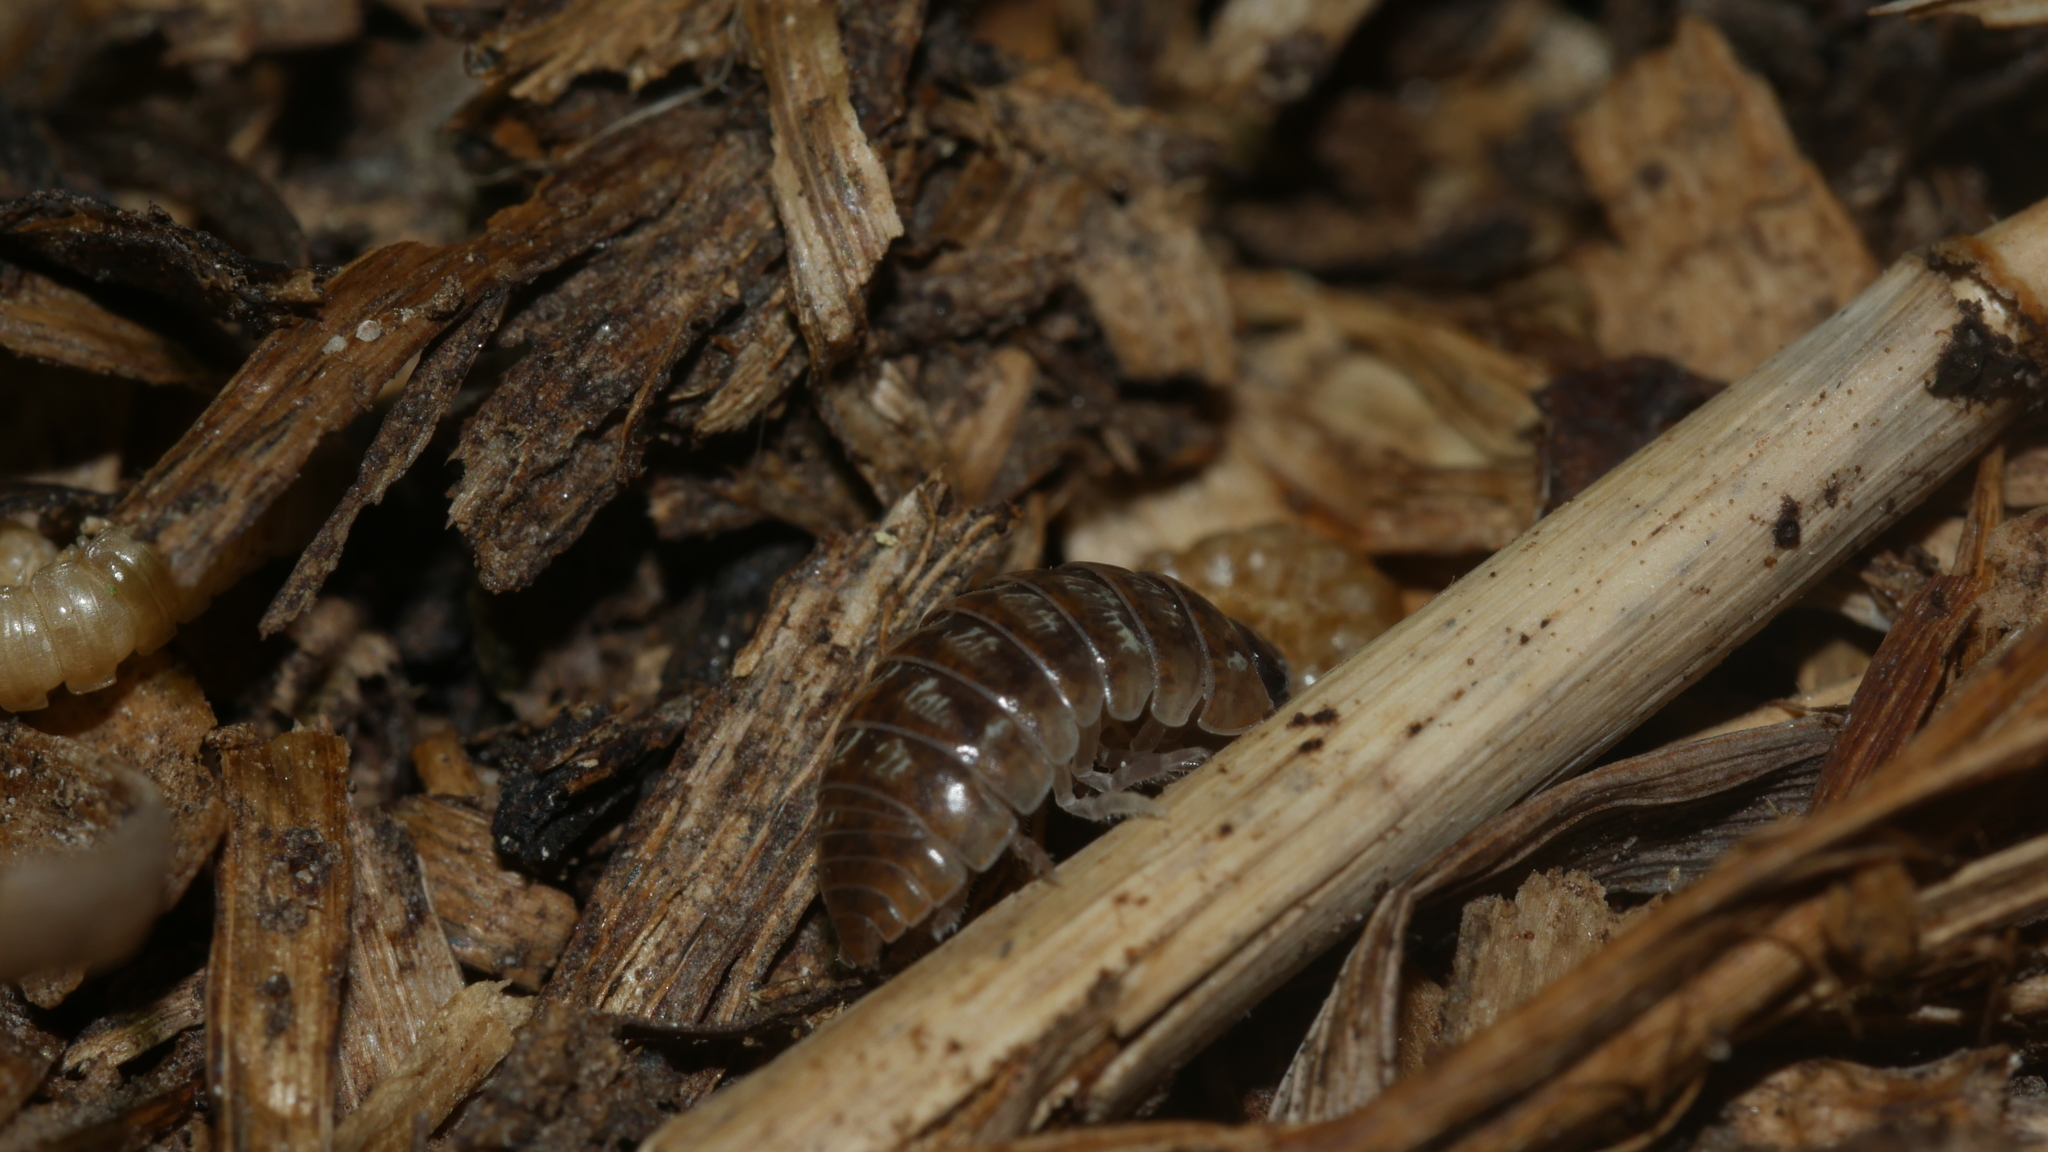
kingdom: Animalia
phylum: Arthropoda
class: Malacostraca
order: Isopoda
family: Armadillidiidae
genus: Armadillidium
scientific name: Armadillidium vulgare
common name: Common pill woodlouse
